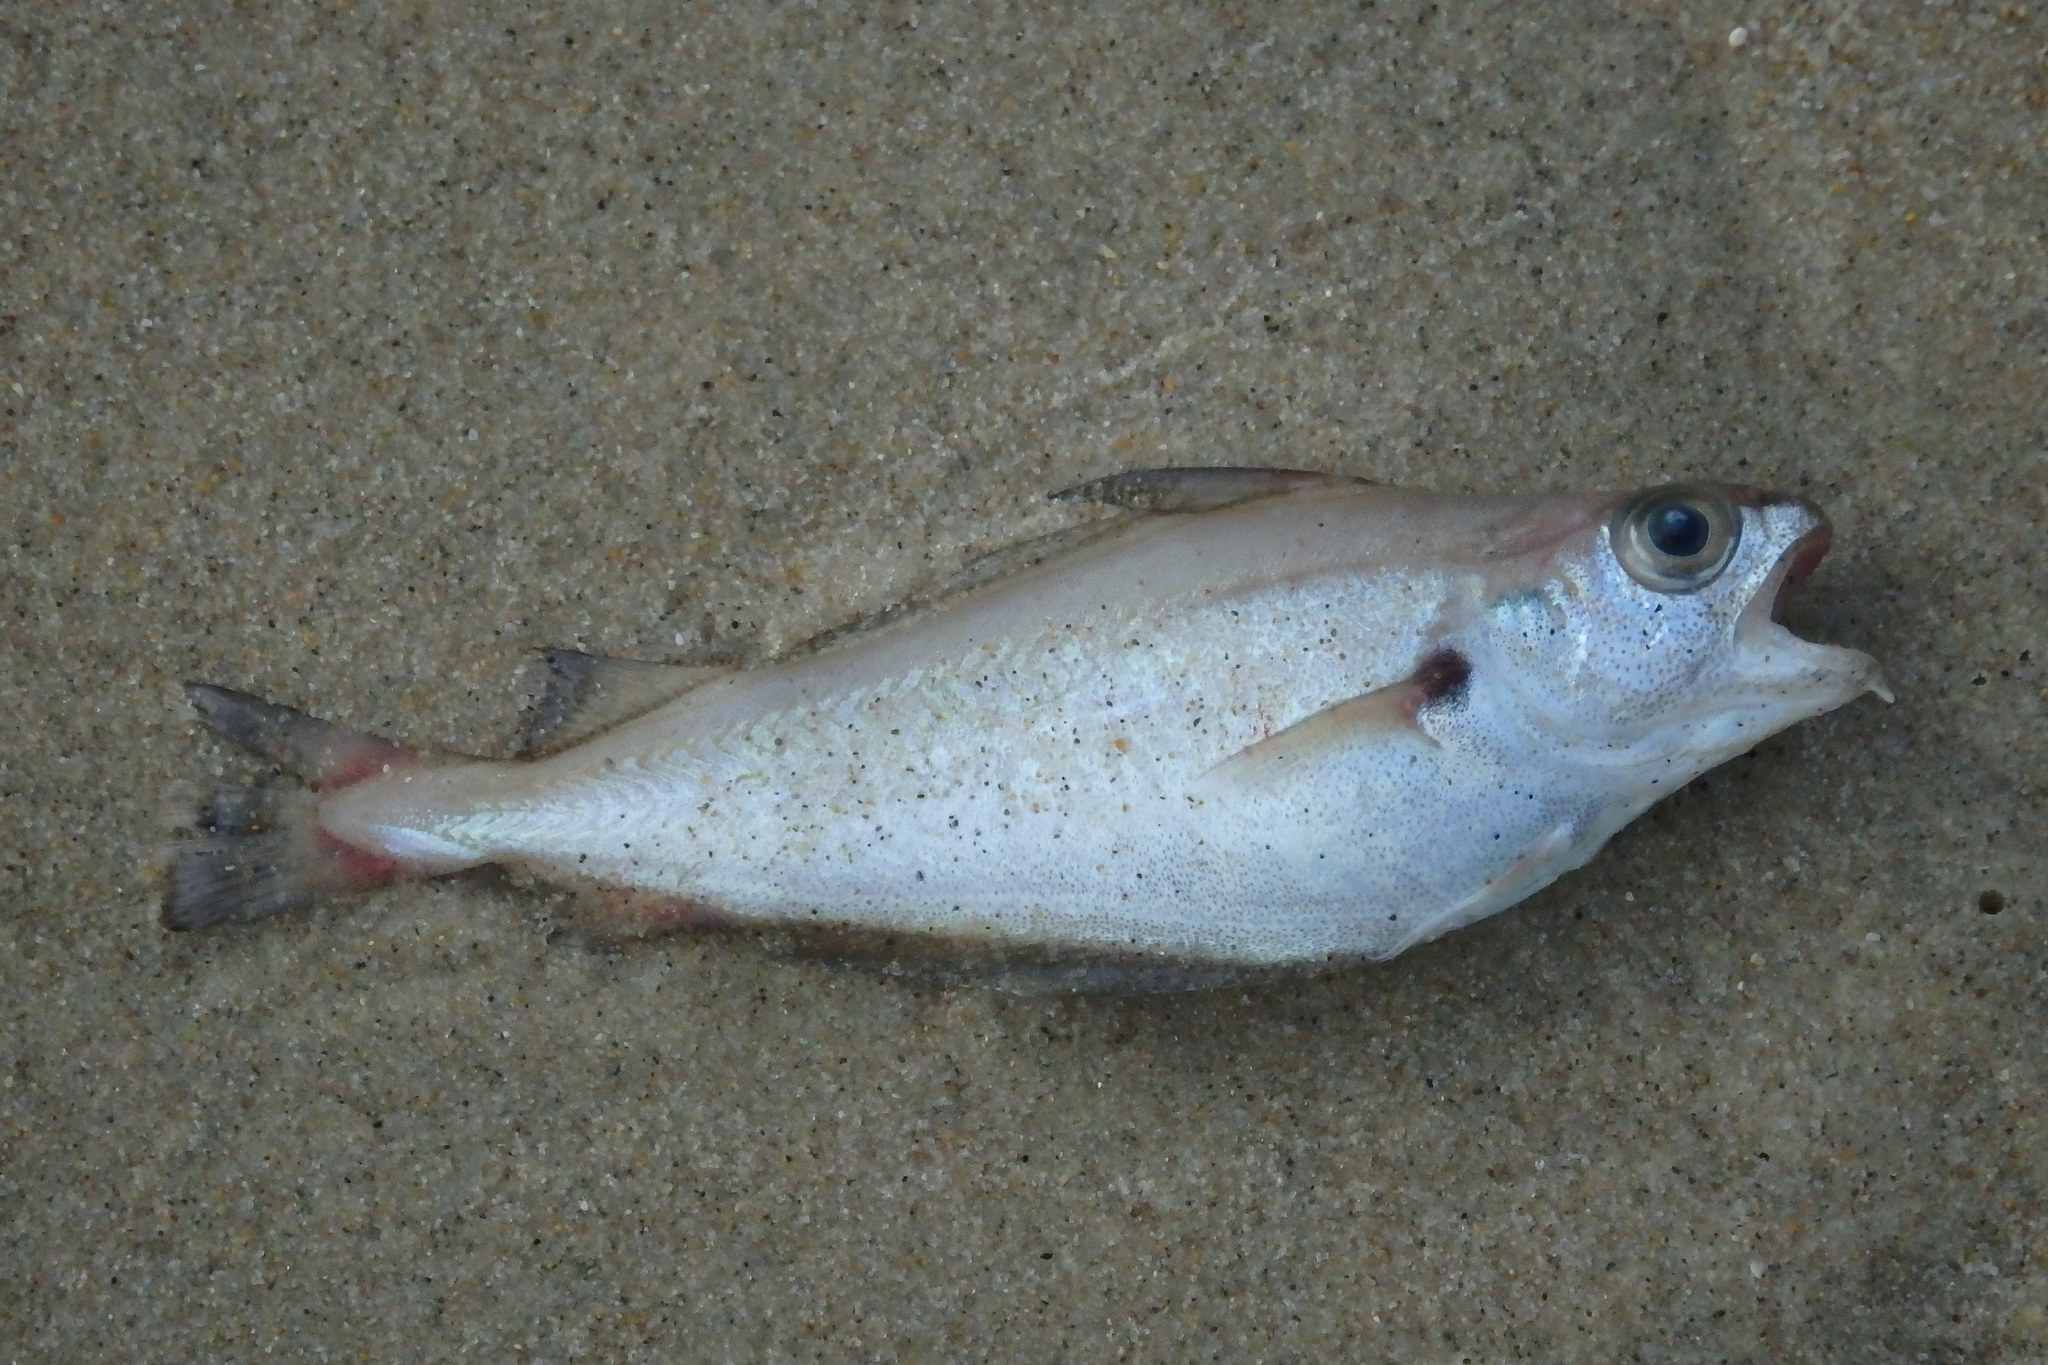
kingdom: Animalia
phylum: Chordata
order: Gadiformes
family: Gadidae
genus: Trisopterus
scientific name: Trisopterus luscus
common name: Bib
